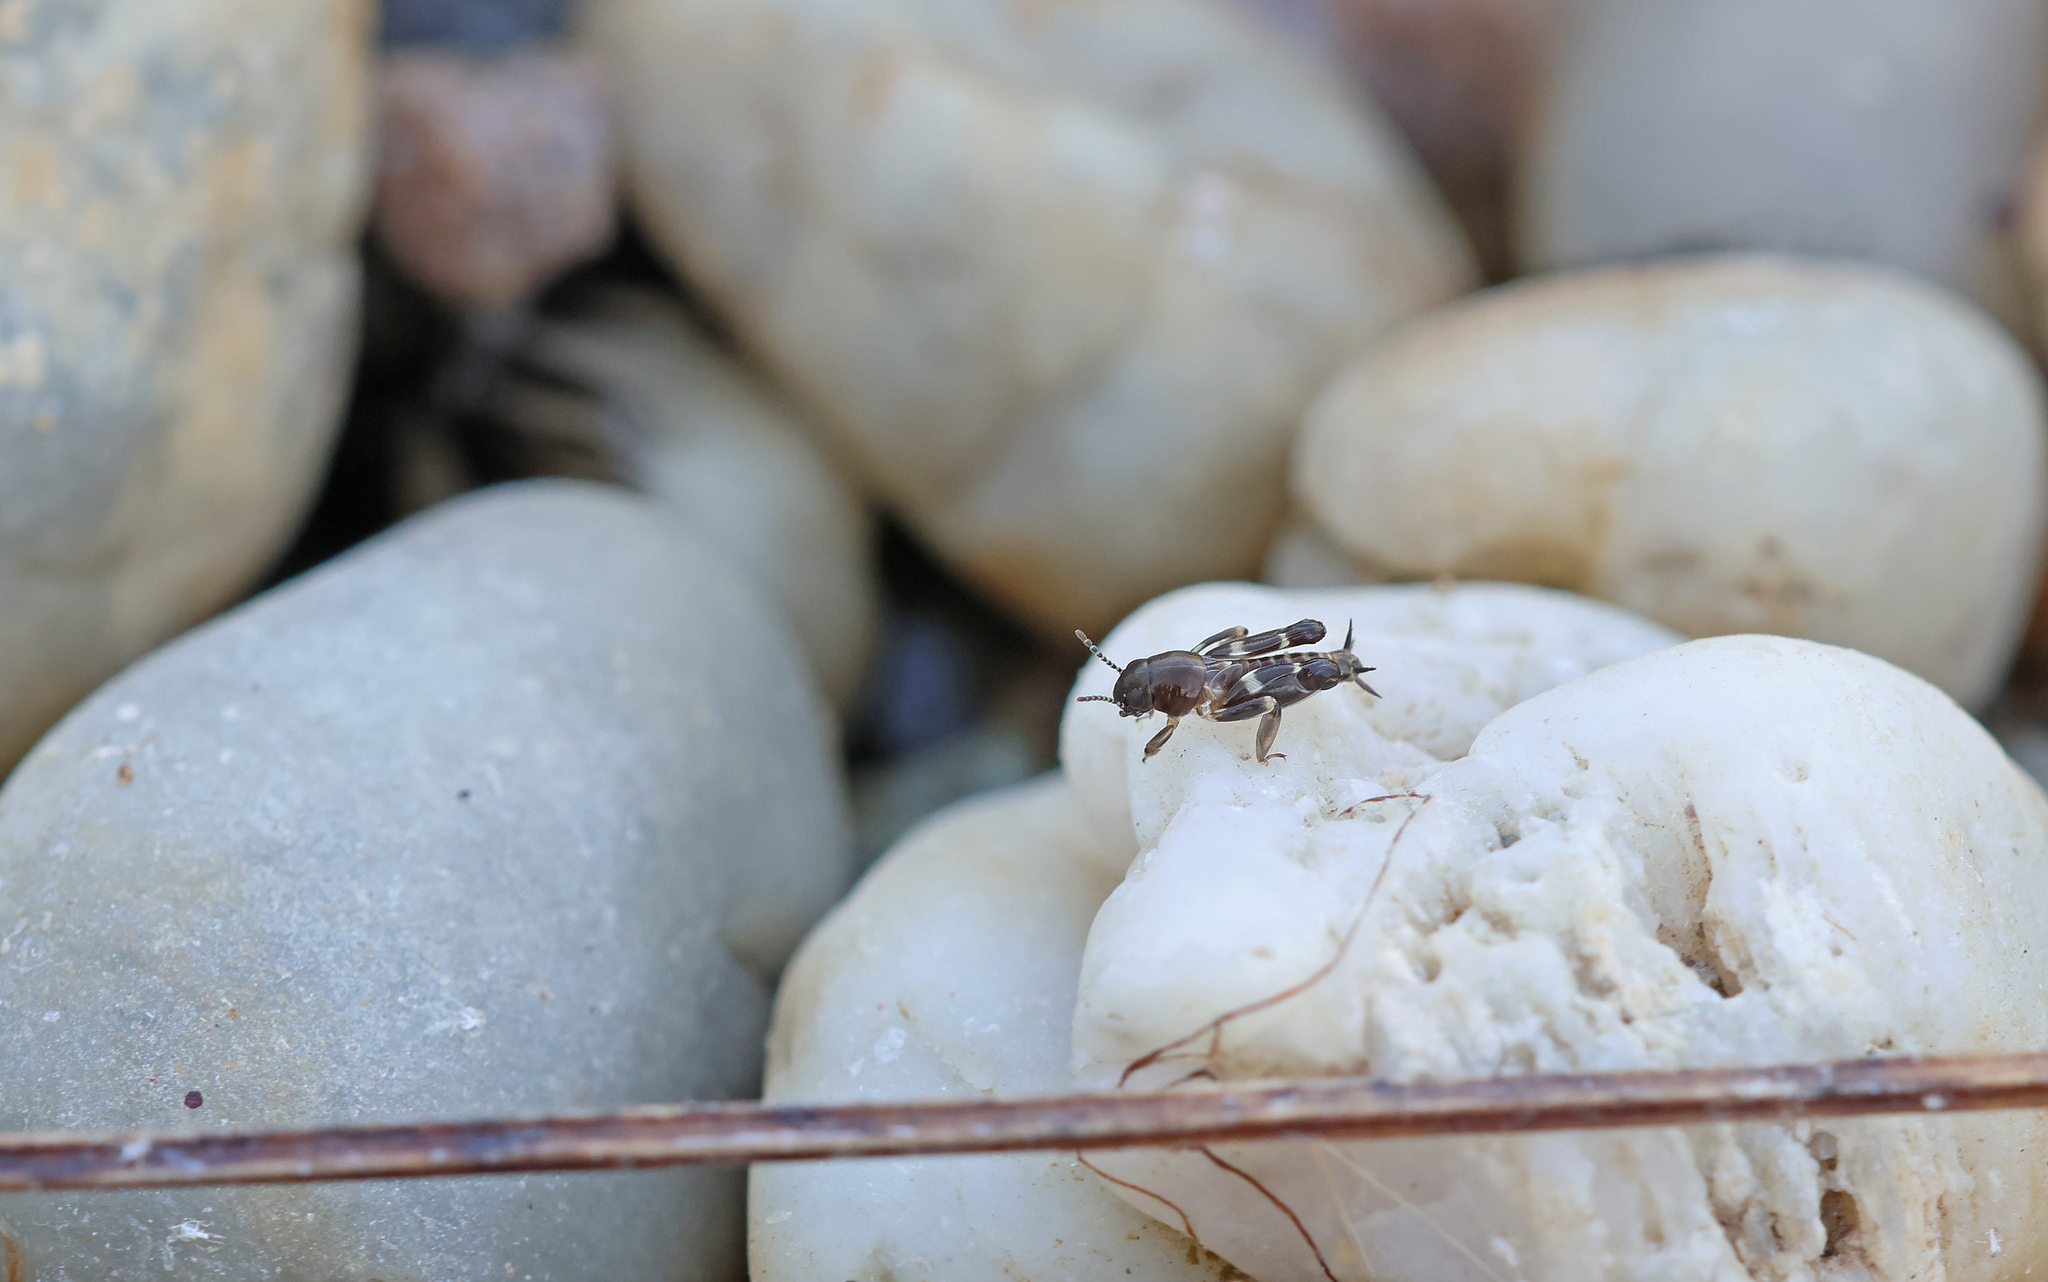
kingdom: Animalia
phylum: Arthropoda
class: Insecta
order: Orthoptera
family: Tridactylidae
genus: Xya
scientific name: Xya pfaendleri
